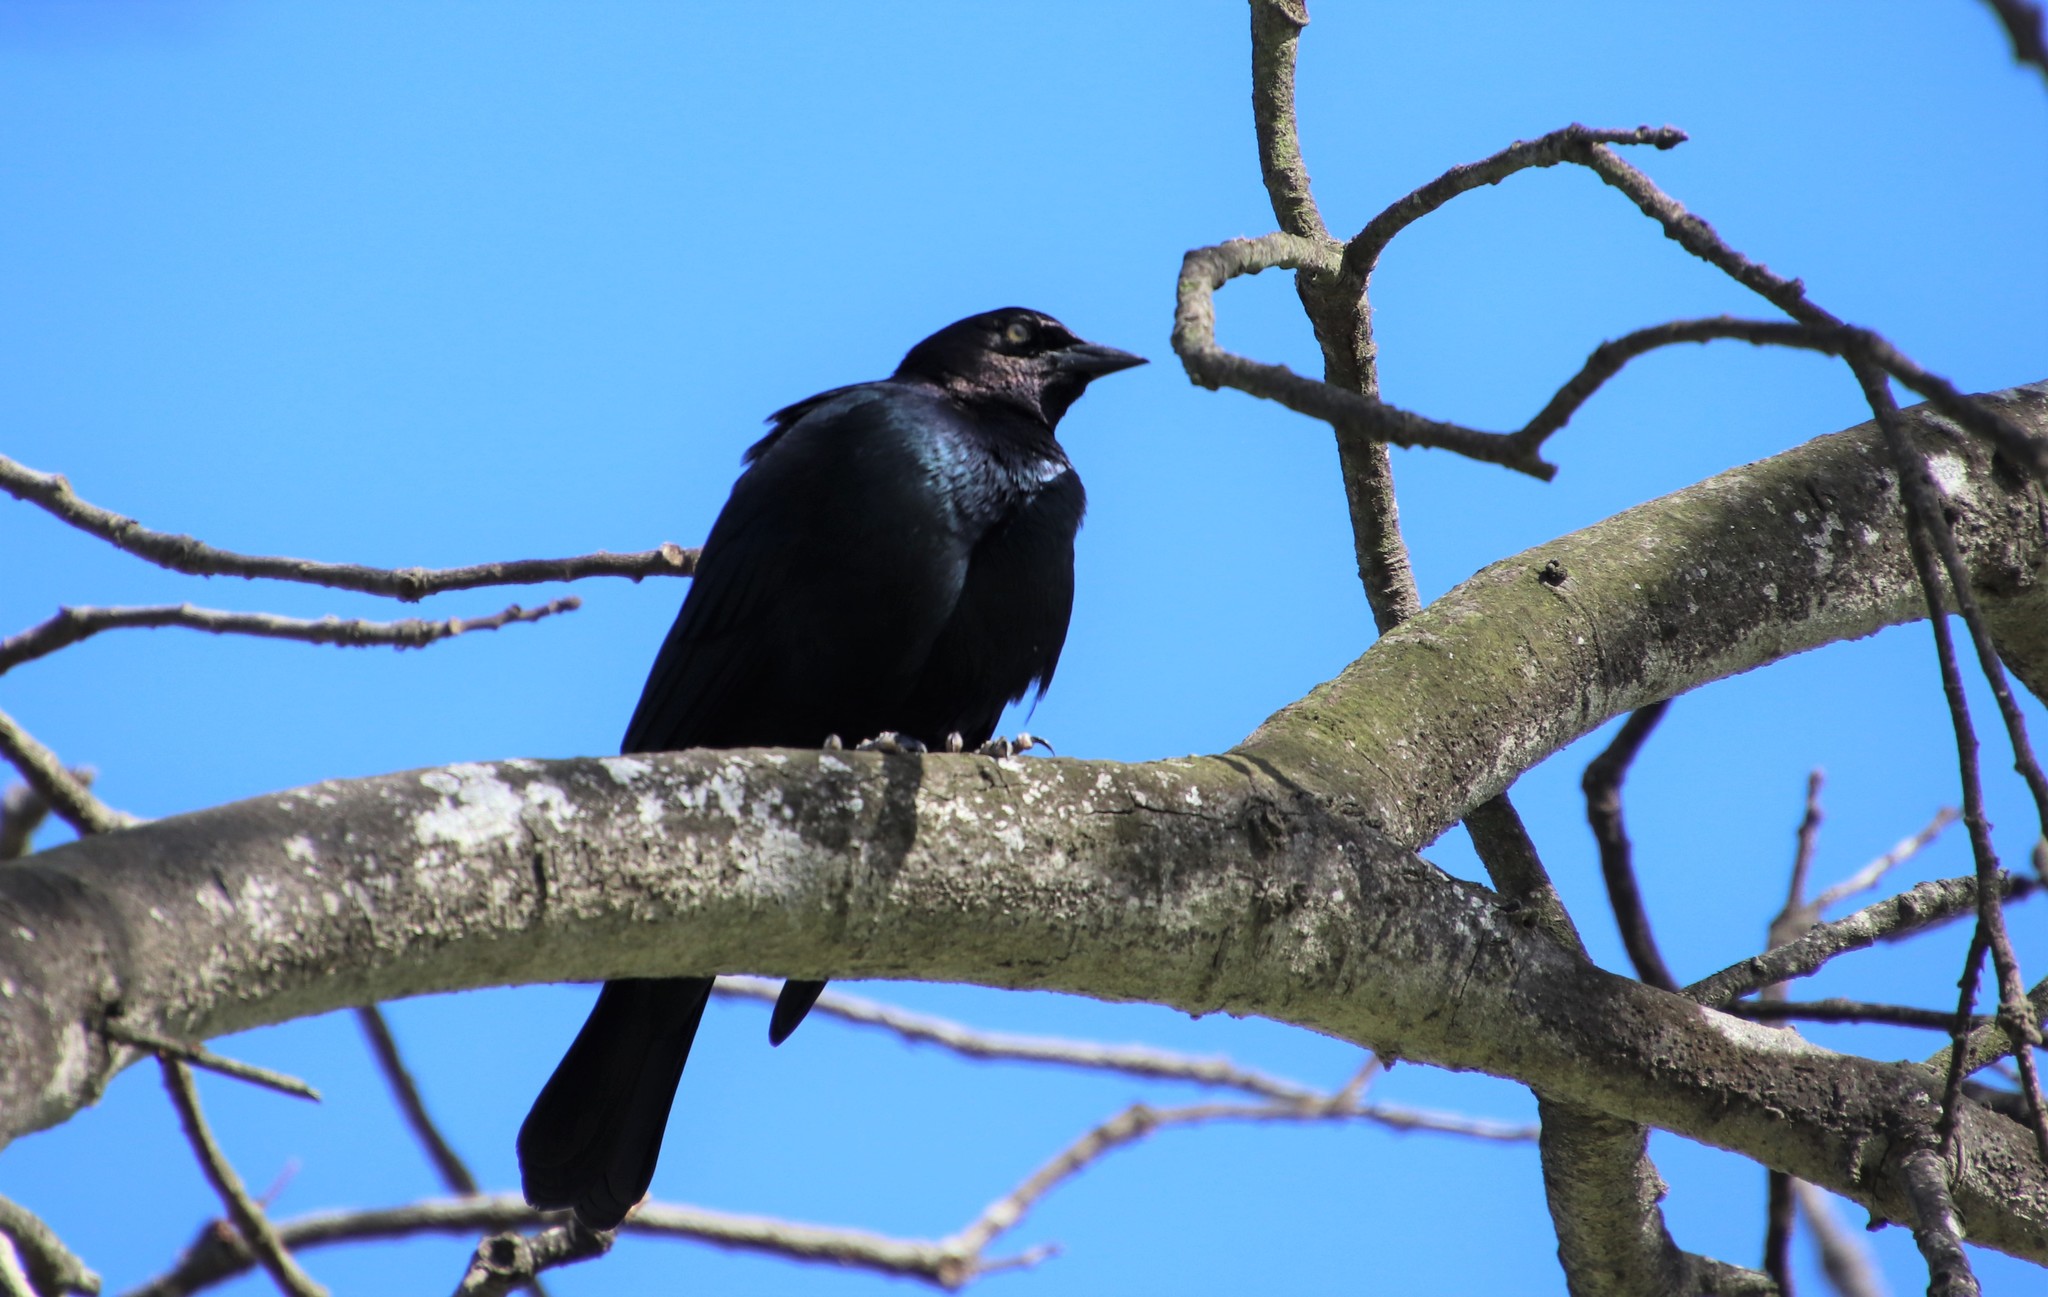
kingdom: Animalia
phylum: Chordata
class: Aves
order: Passeriformes
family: Icteridae
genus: Euphagus
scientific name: Euphagus cyanocephalus
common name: Brewer's blackbird
